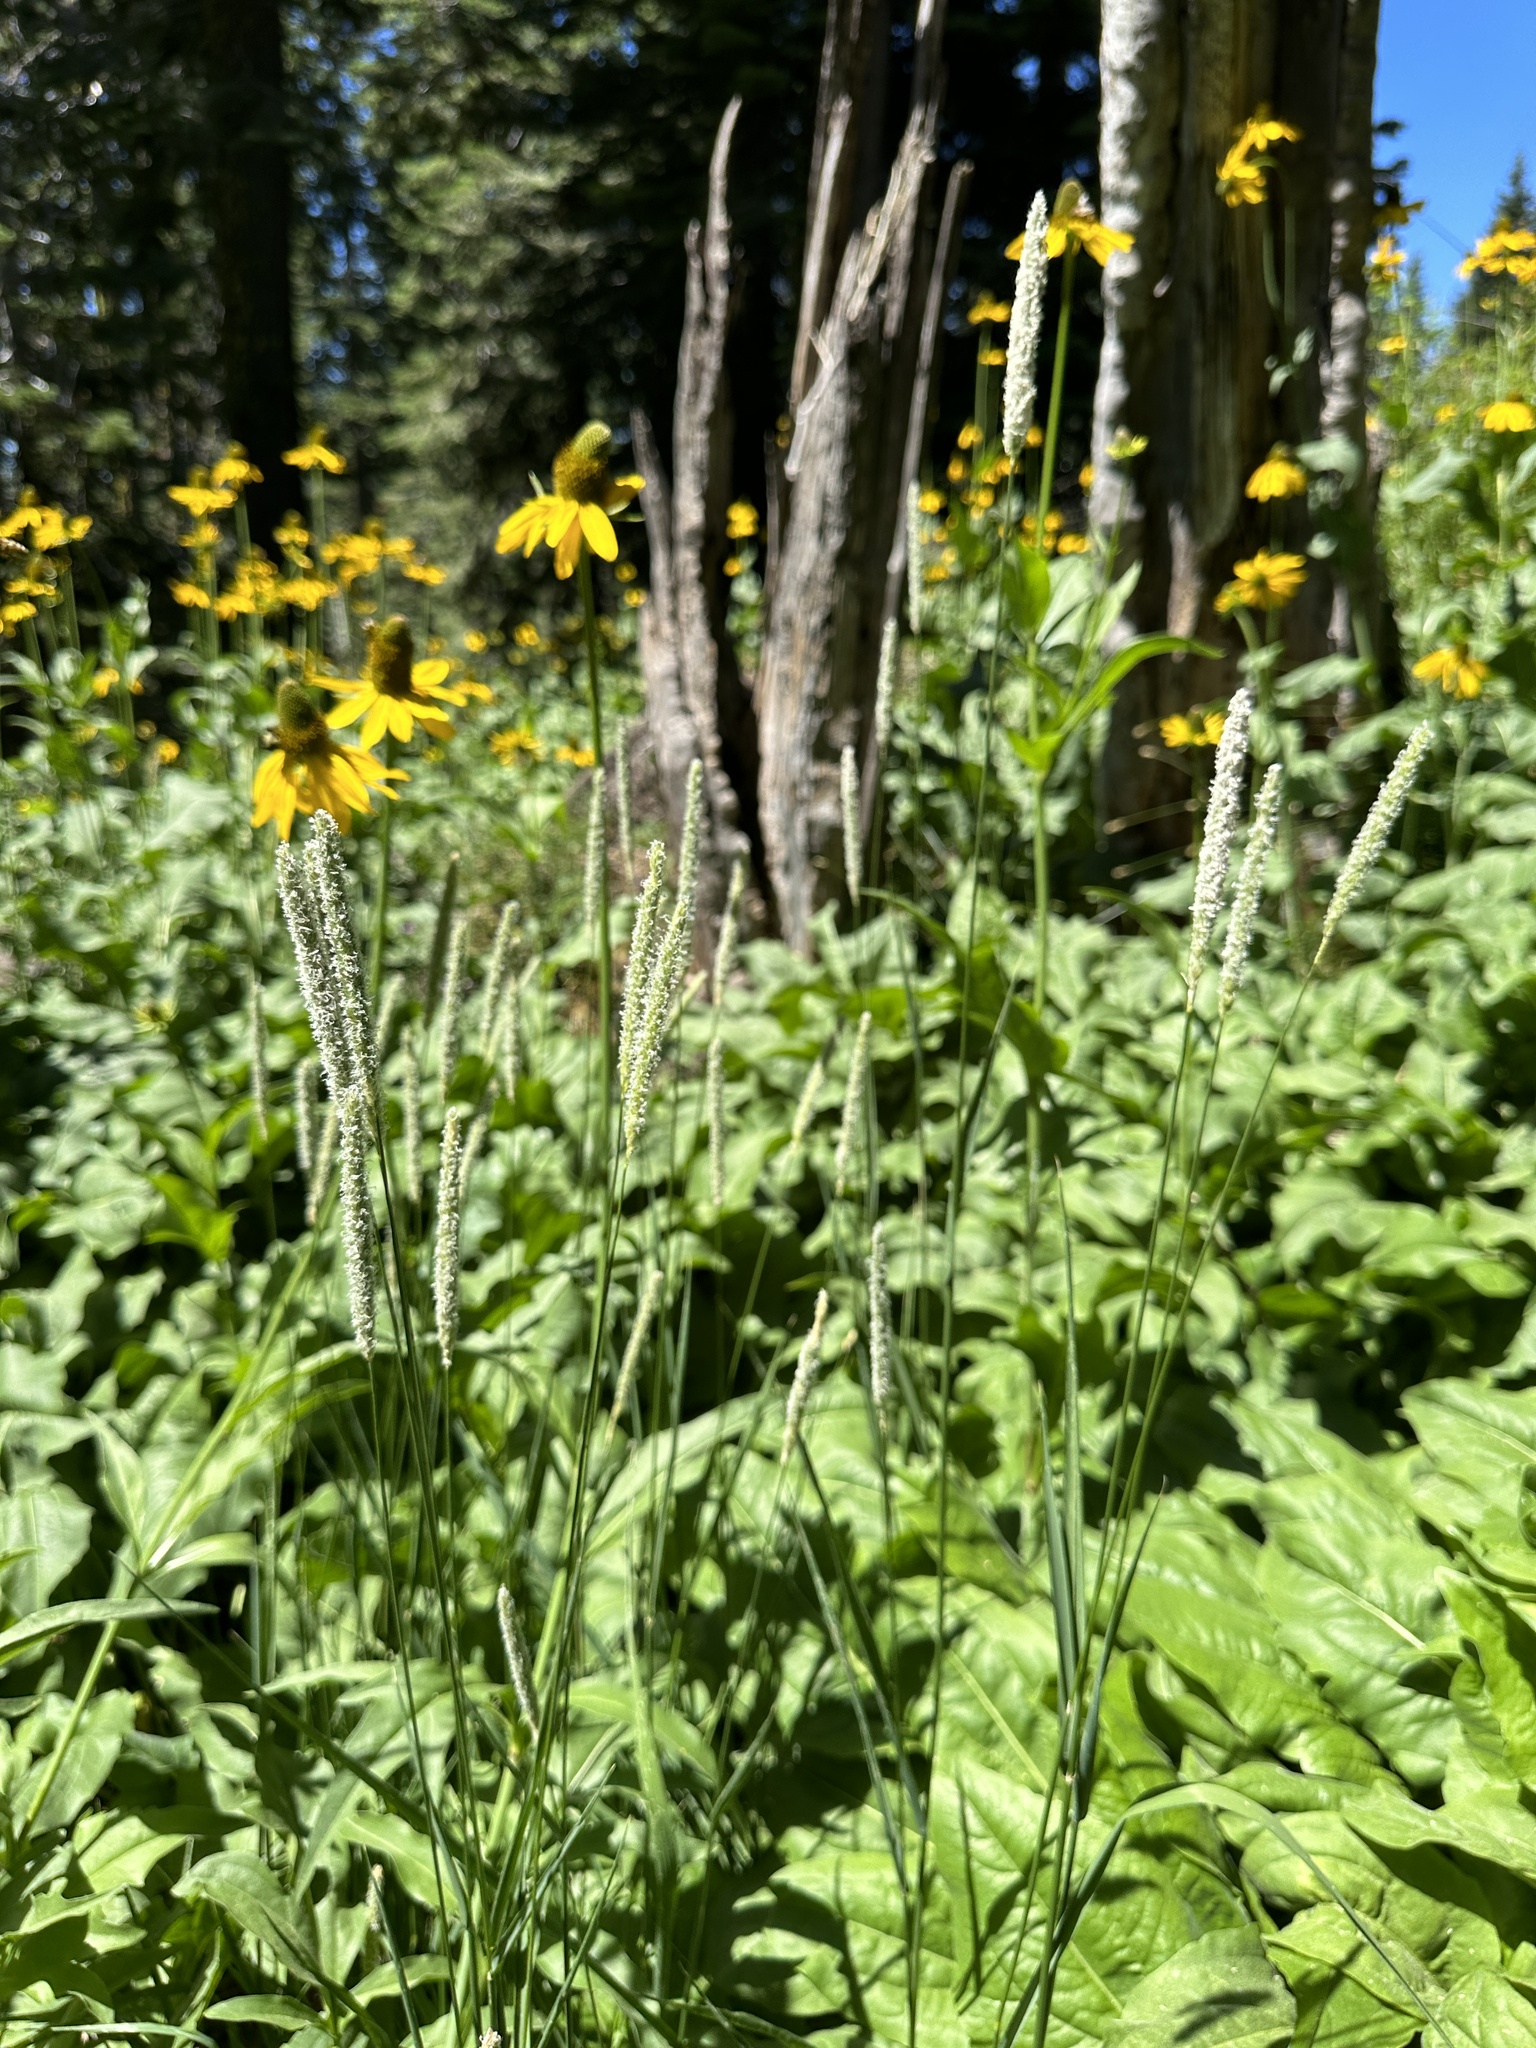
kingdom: Plantae
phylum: Tracheophyta
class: Liliopsida
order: Poales
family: Poaceae
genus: Phleum
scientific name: Phleum pratense
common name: Timothy grass
